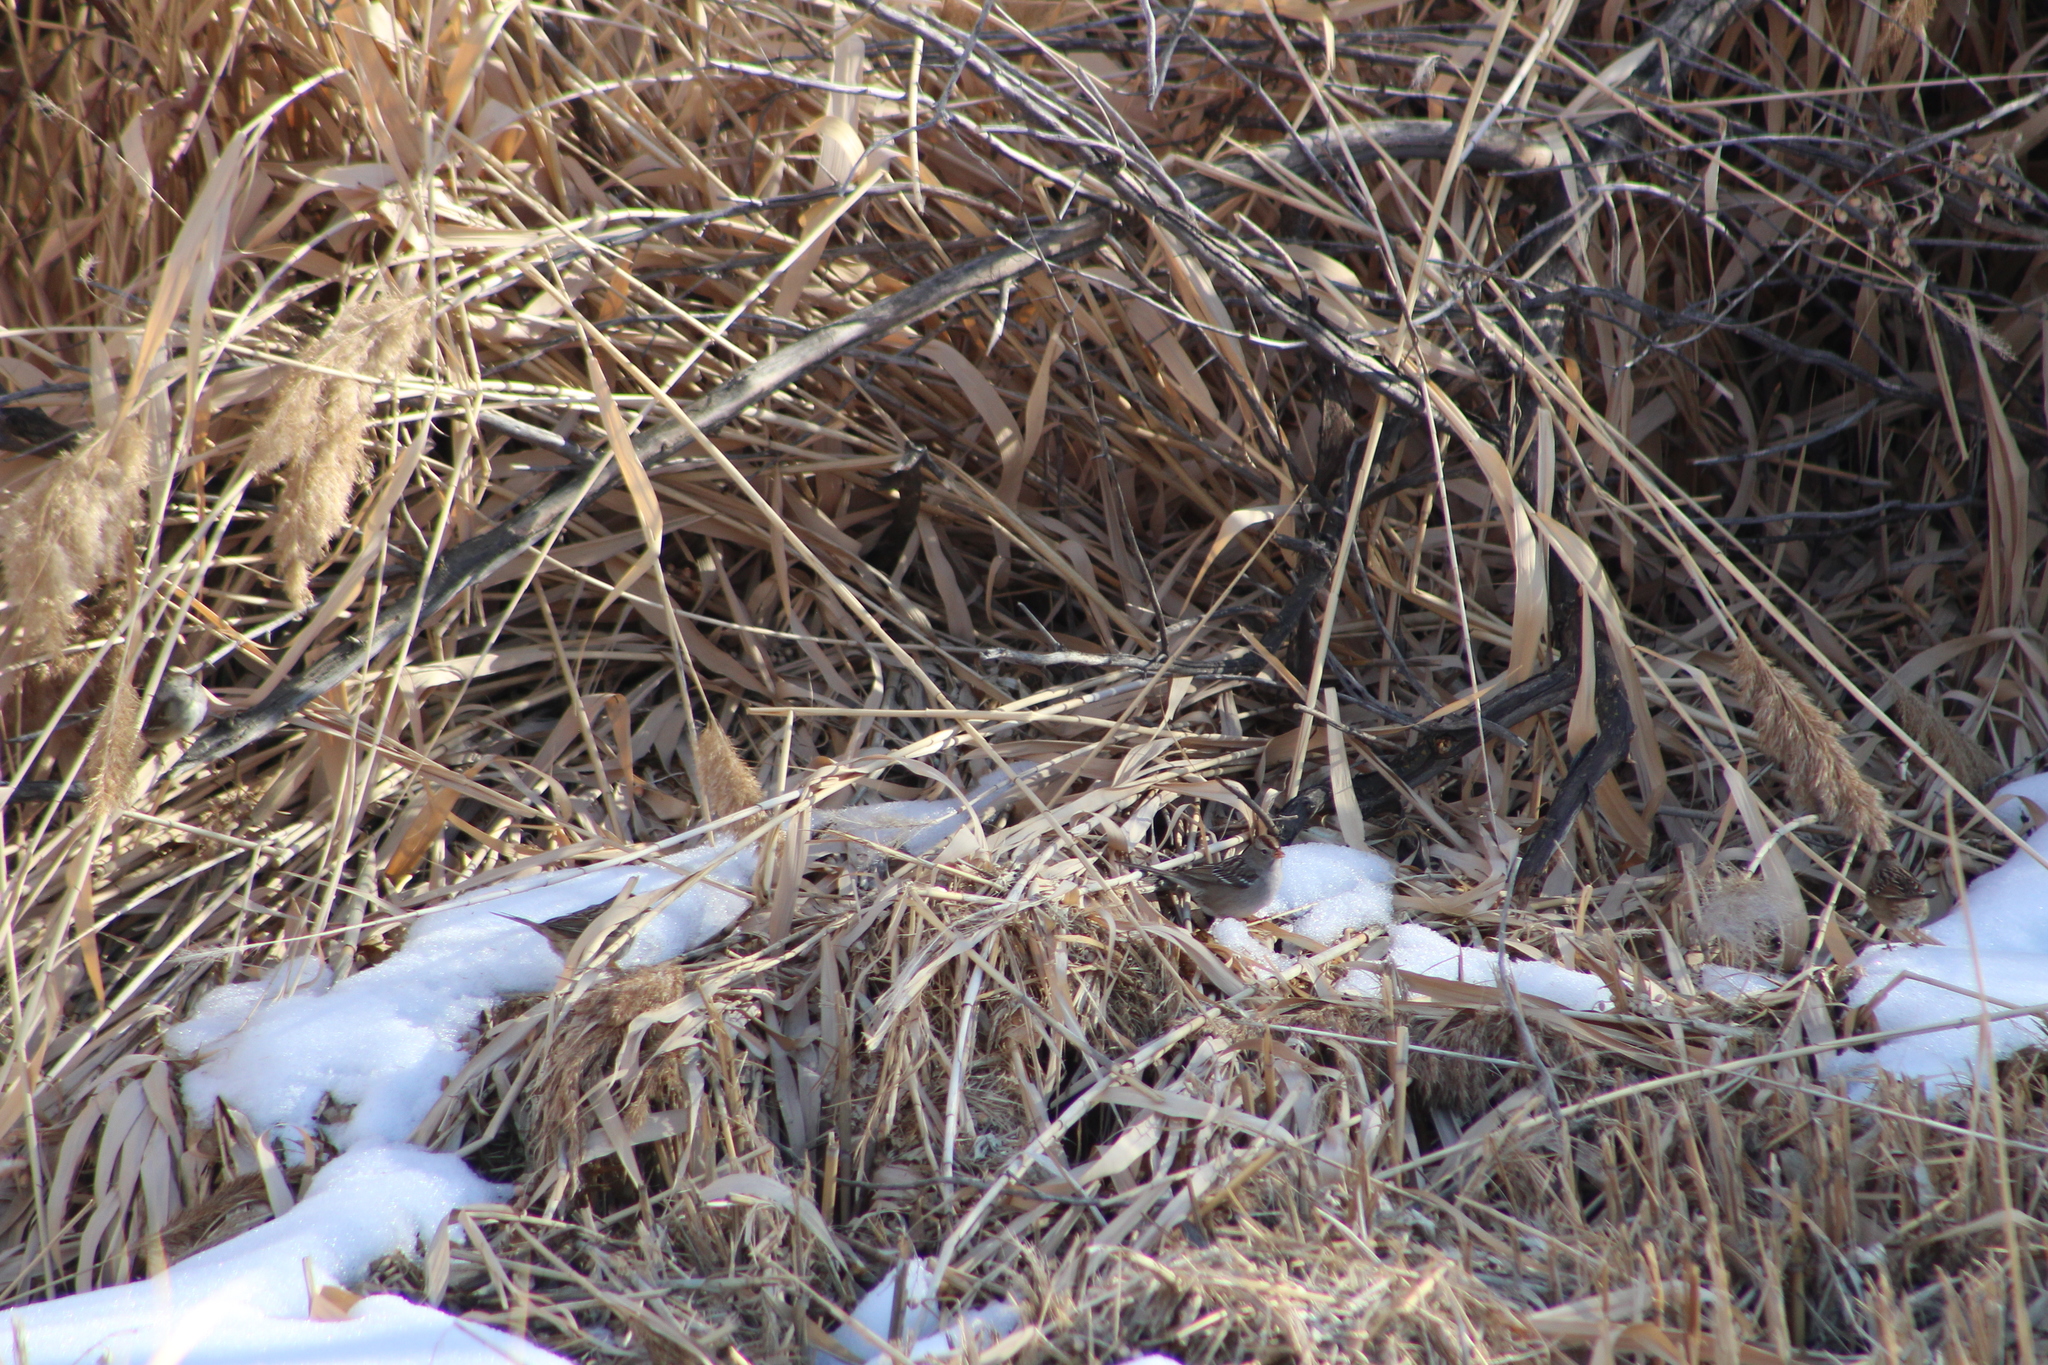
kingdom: Animalia
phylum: Chordata
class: Aves
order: Passeriformes
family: Passerellidae
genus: Zonotrichia
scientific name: Zonotrichia leucophrys
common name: White-crowned sparrow
